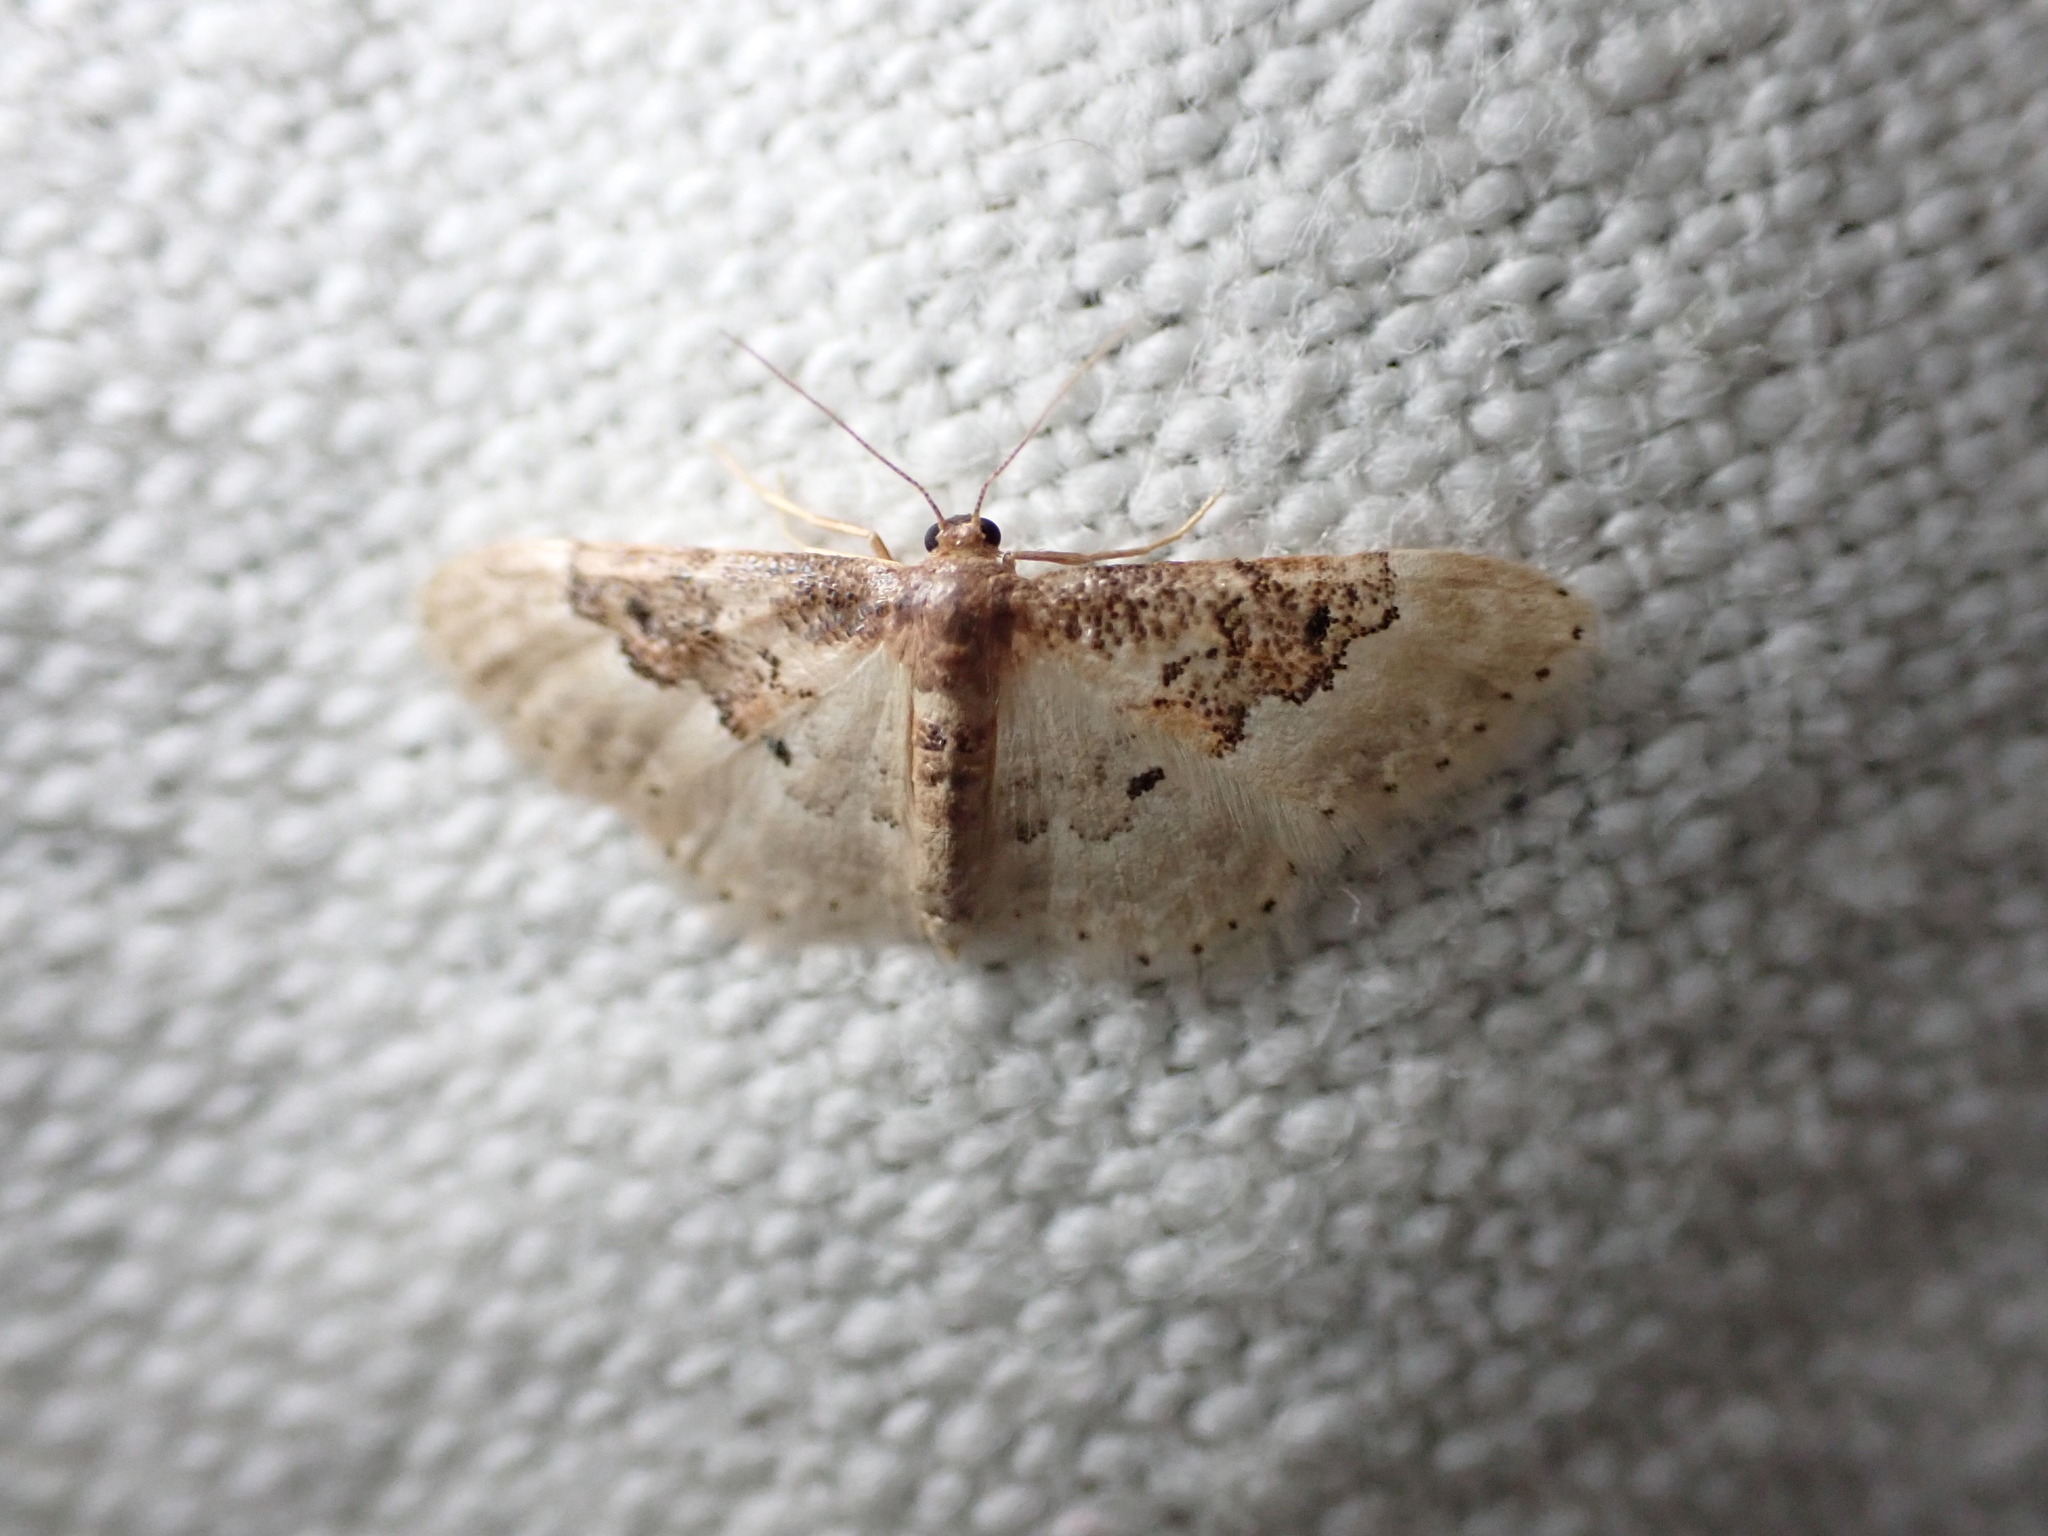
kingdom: Animalia
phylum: Arthropoda
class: Insecta
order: Lepidoptera
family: Geometridae
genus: Idaea
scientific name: Idaea rusticata
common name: Least carpet
